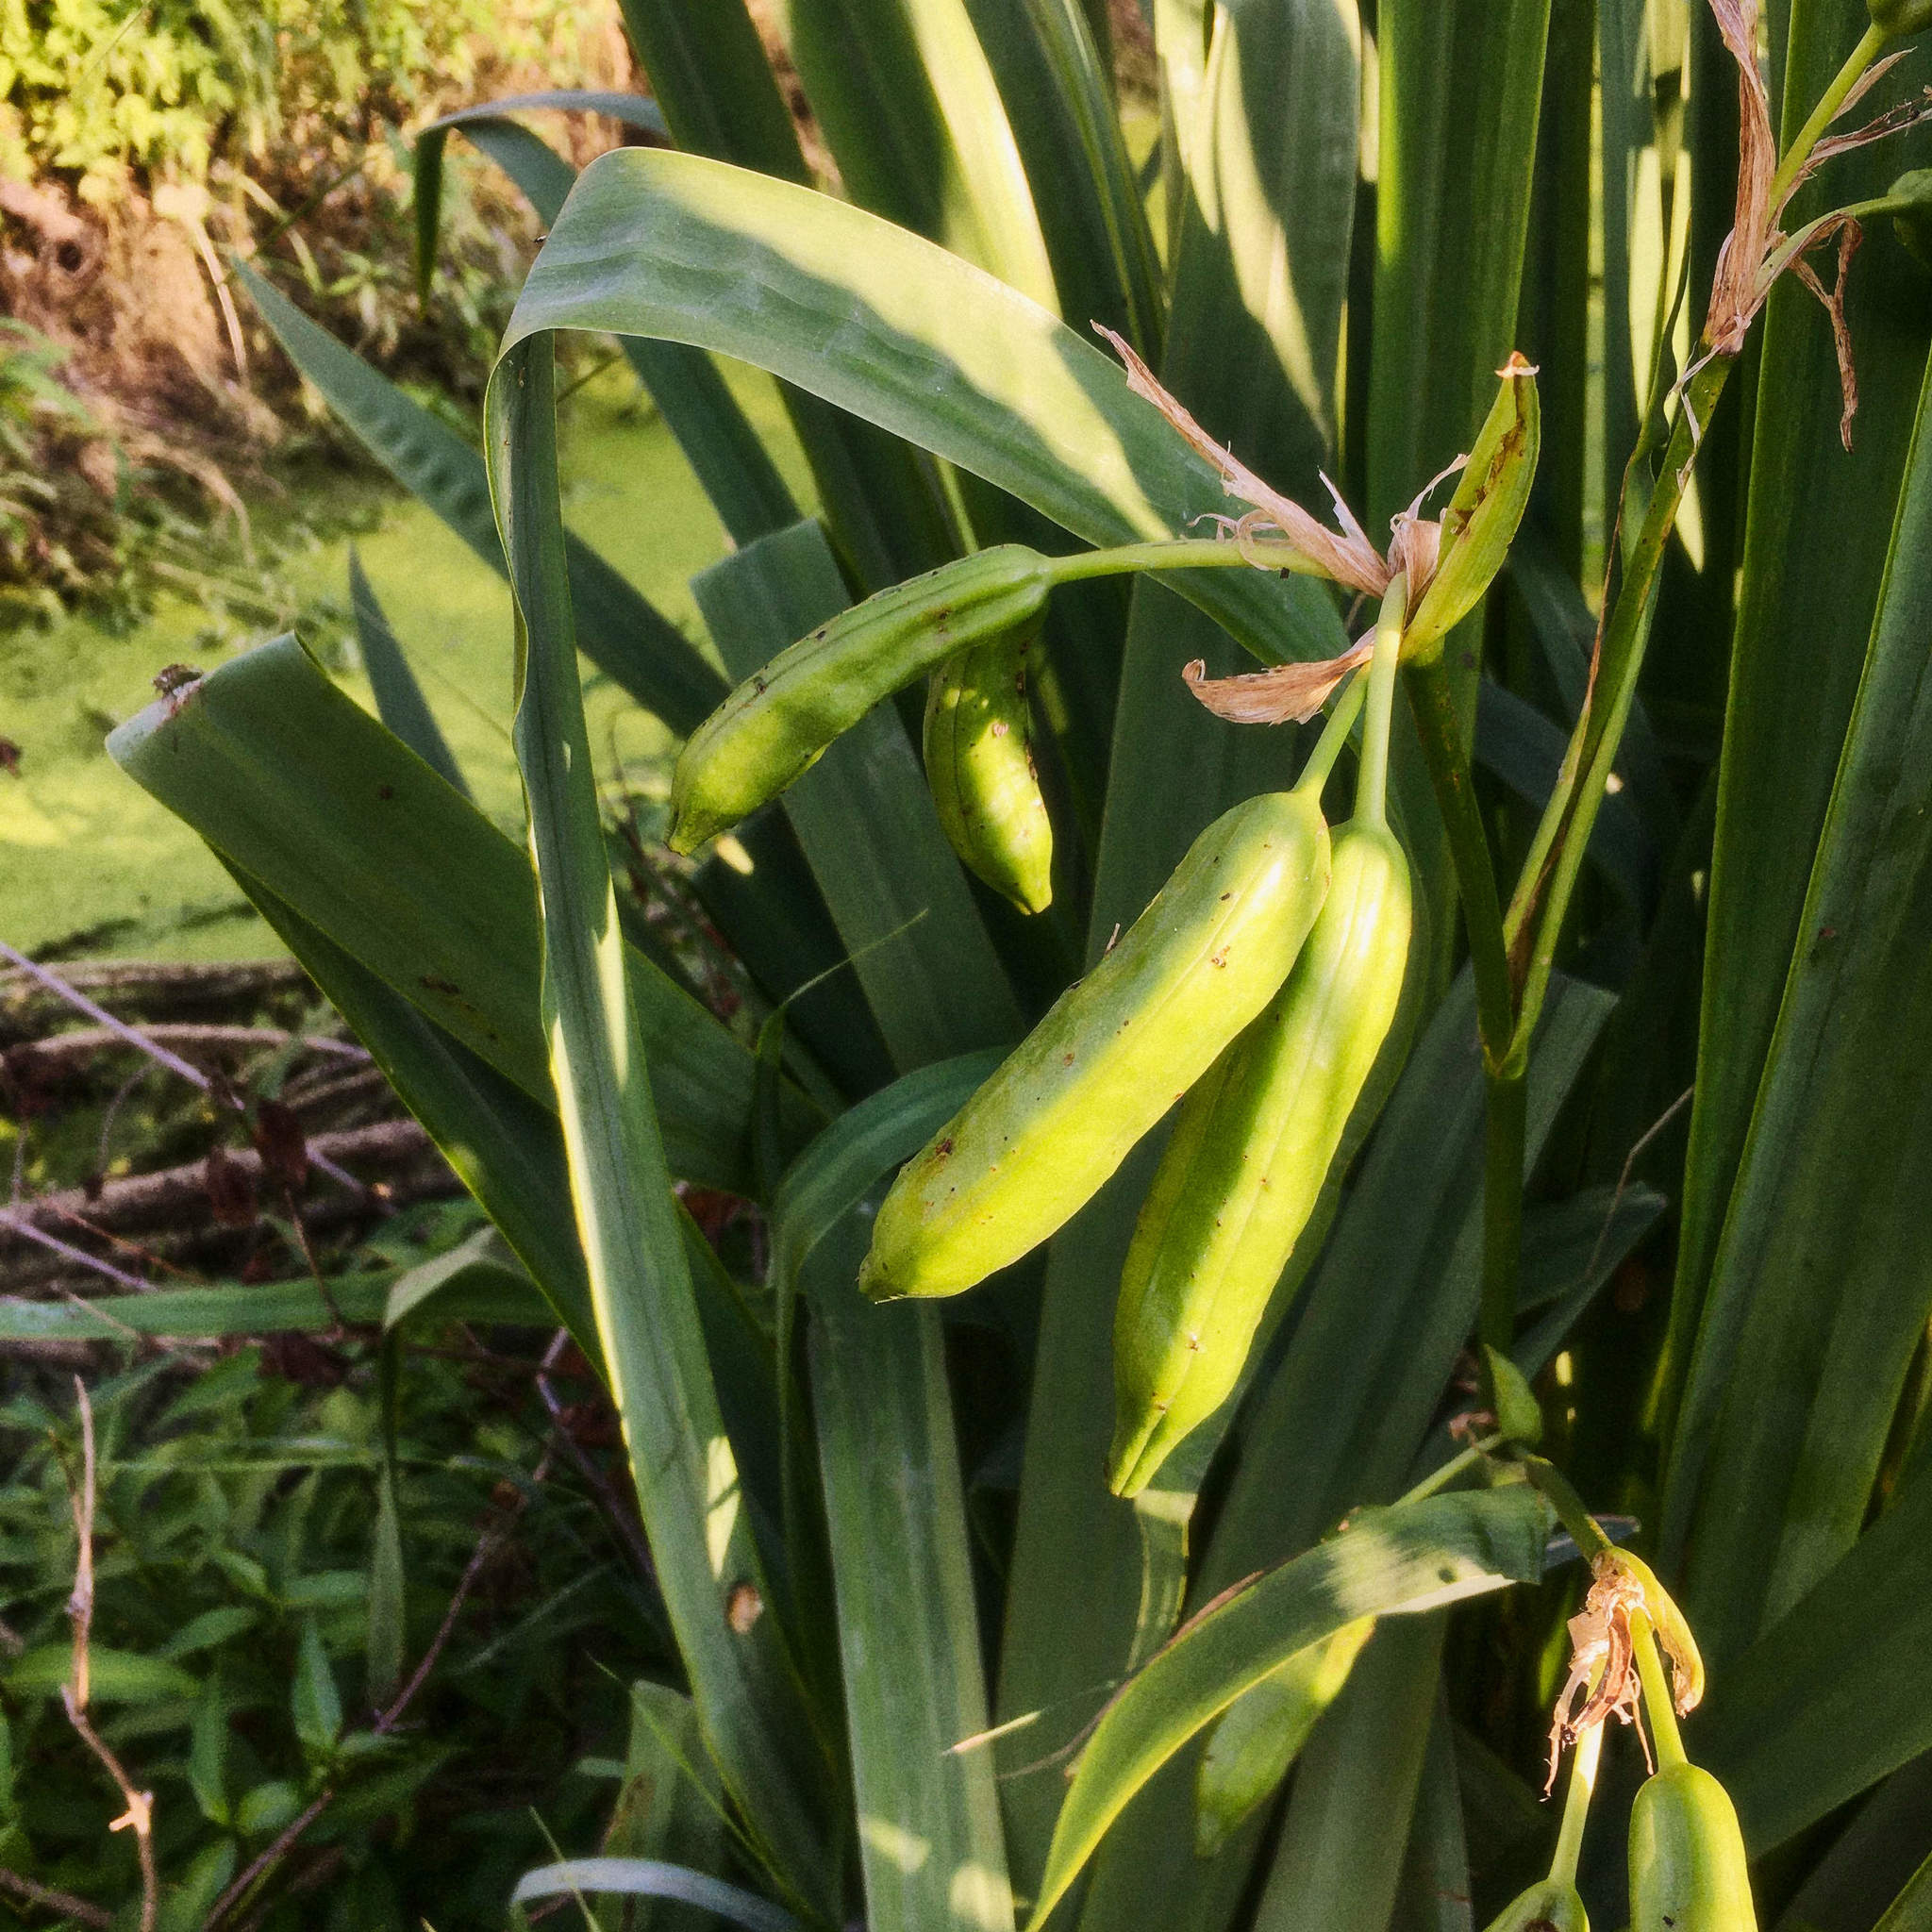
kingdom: Plantae
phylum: Tracheophyta
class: Liliopsida
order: Asparagales
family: Iridaceae
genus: Iris
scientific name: Iris pseudacorus
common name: Yellow flag
